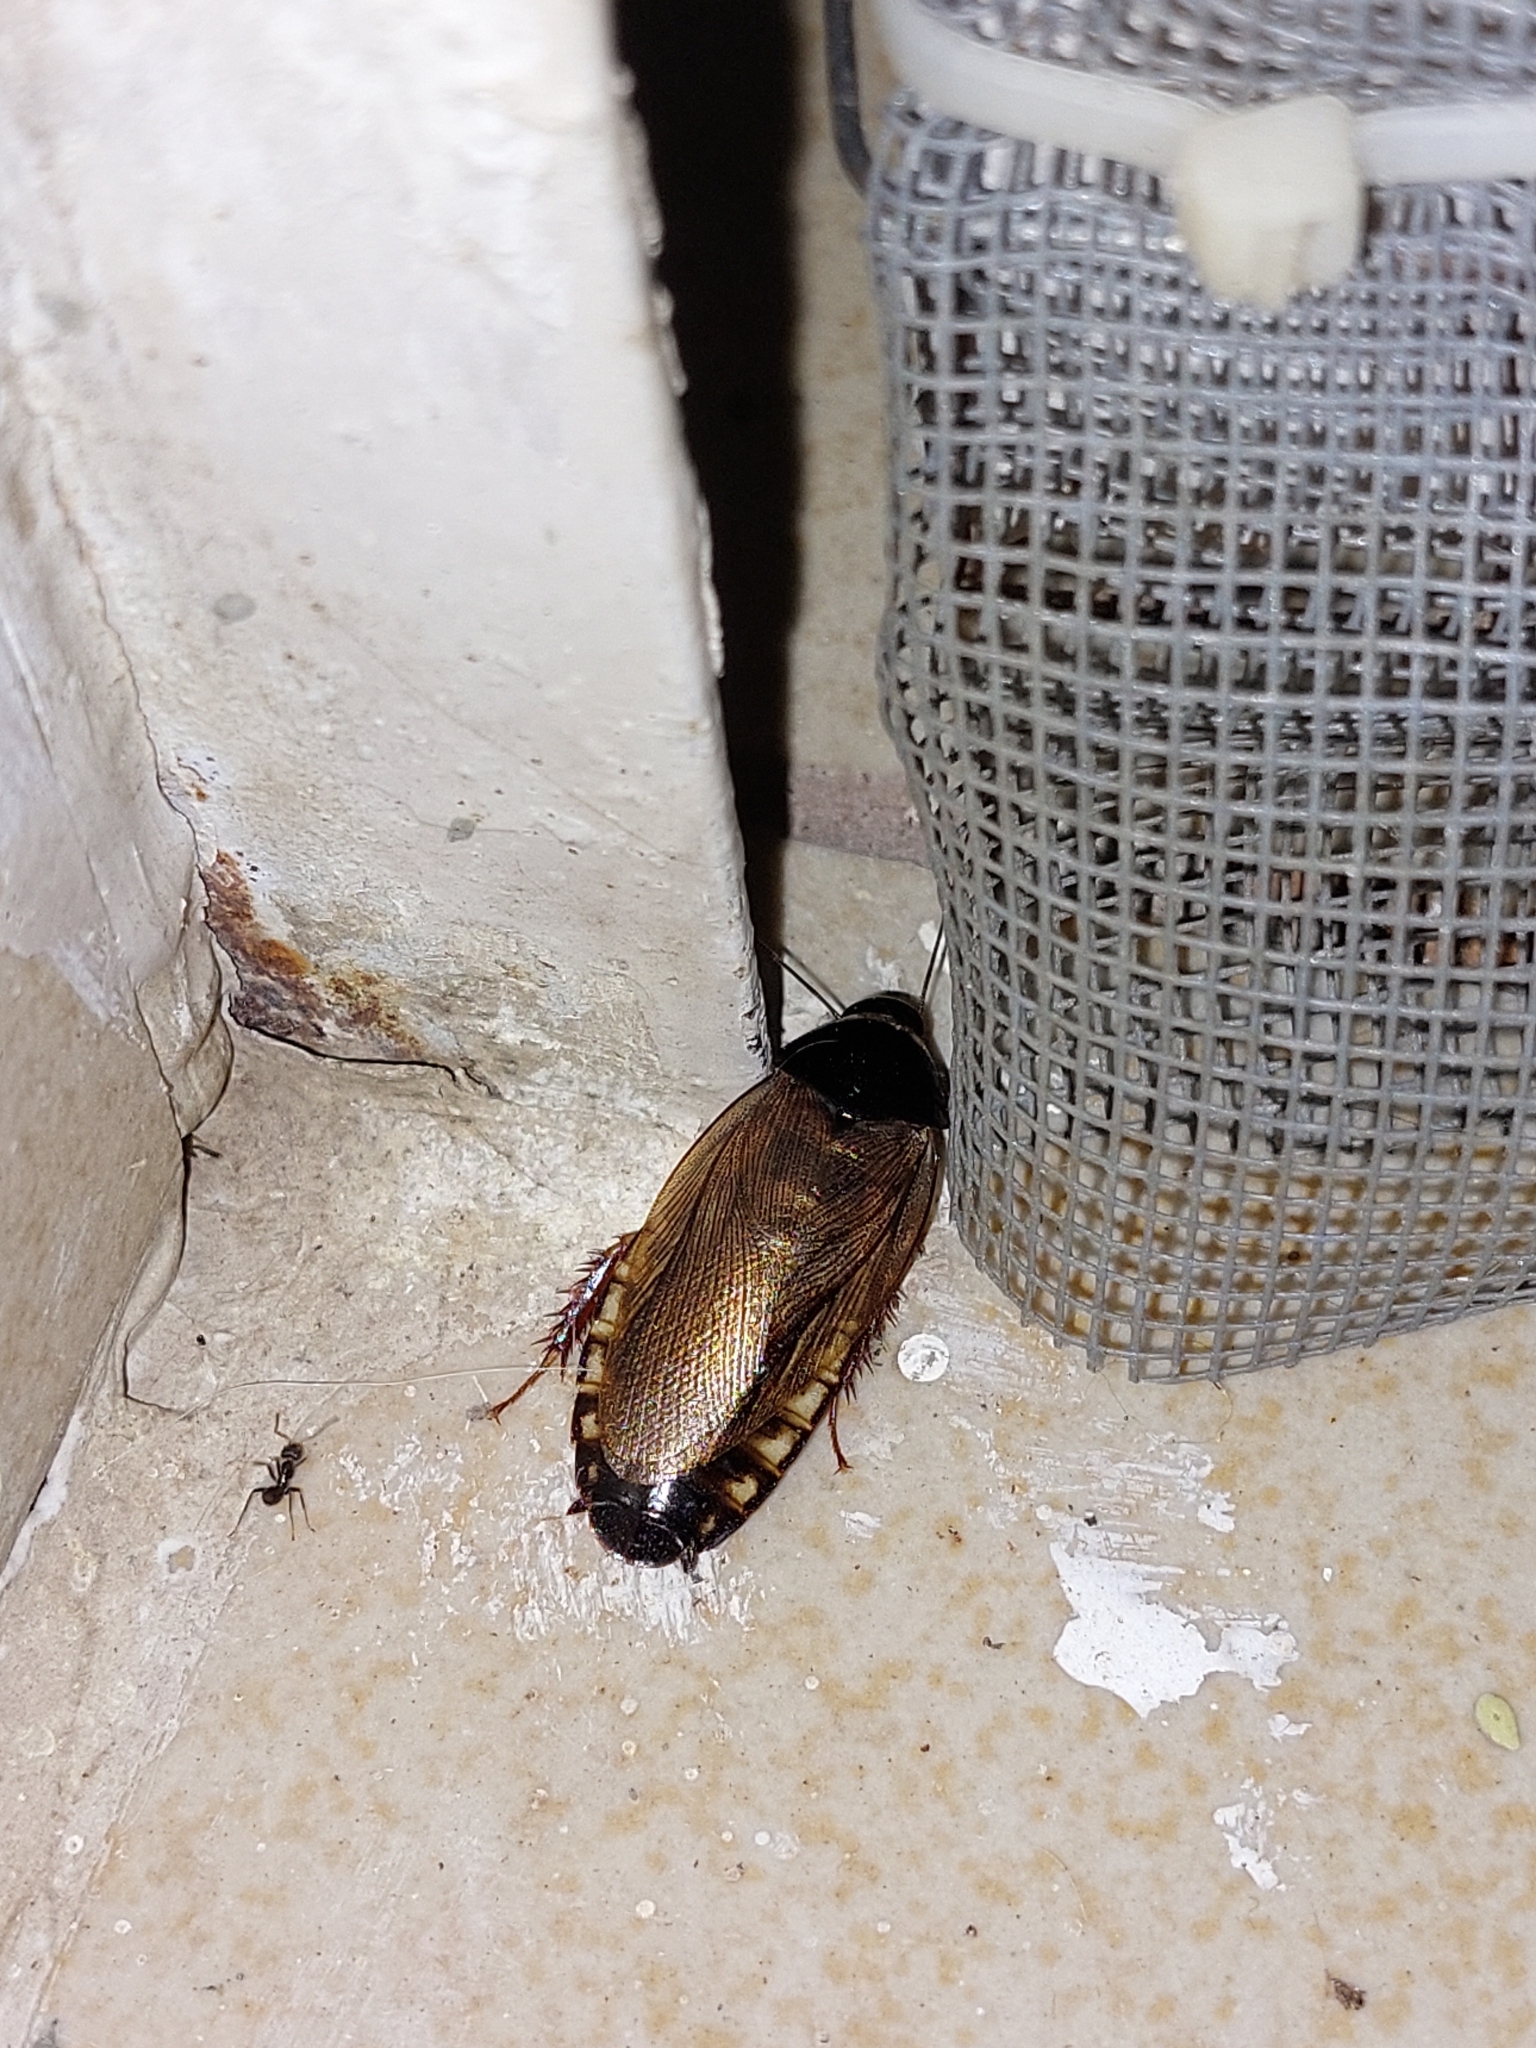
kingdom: Animalia
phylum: Arthropoda
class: Insecta
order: Blattodea
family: Blaberidae
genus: Pycnoscelus
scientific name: Pycnoscelus surinamensis
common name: Surinam cockroach
